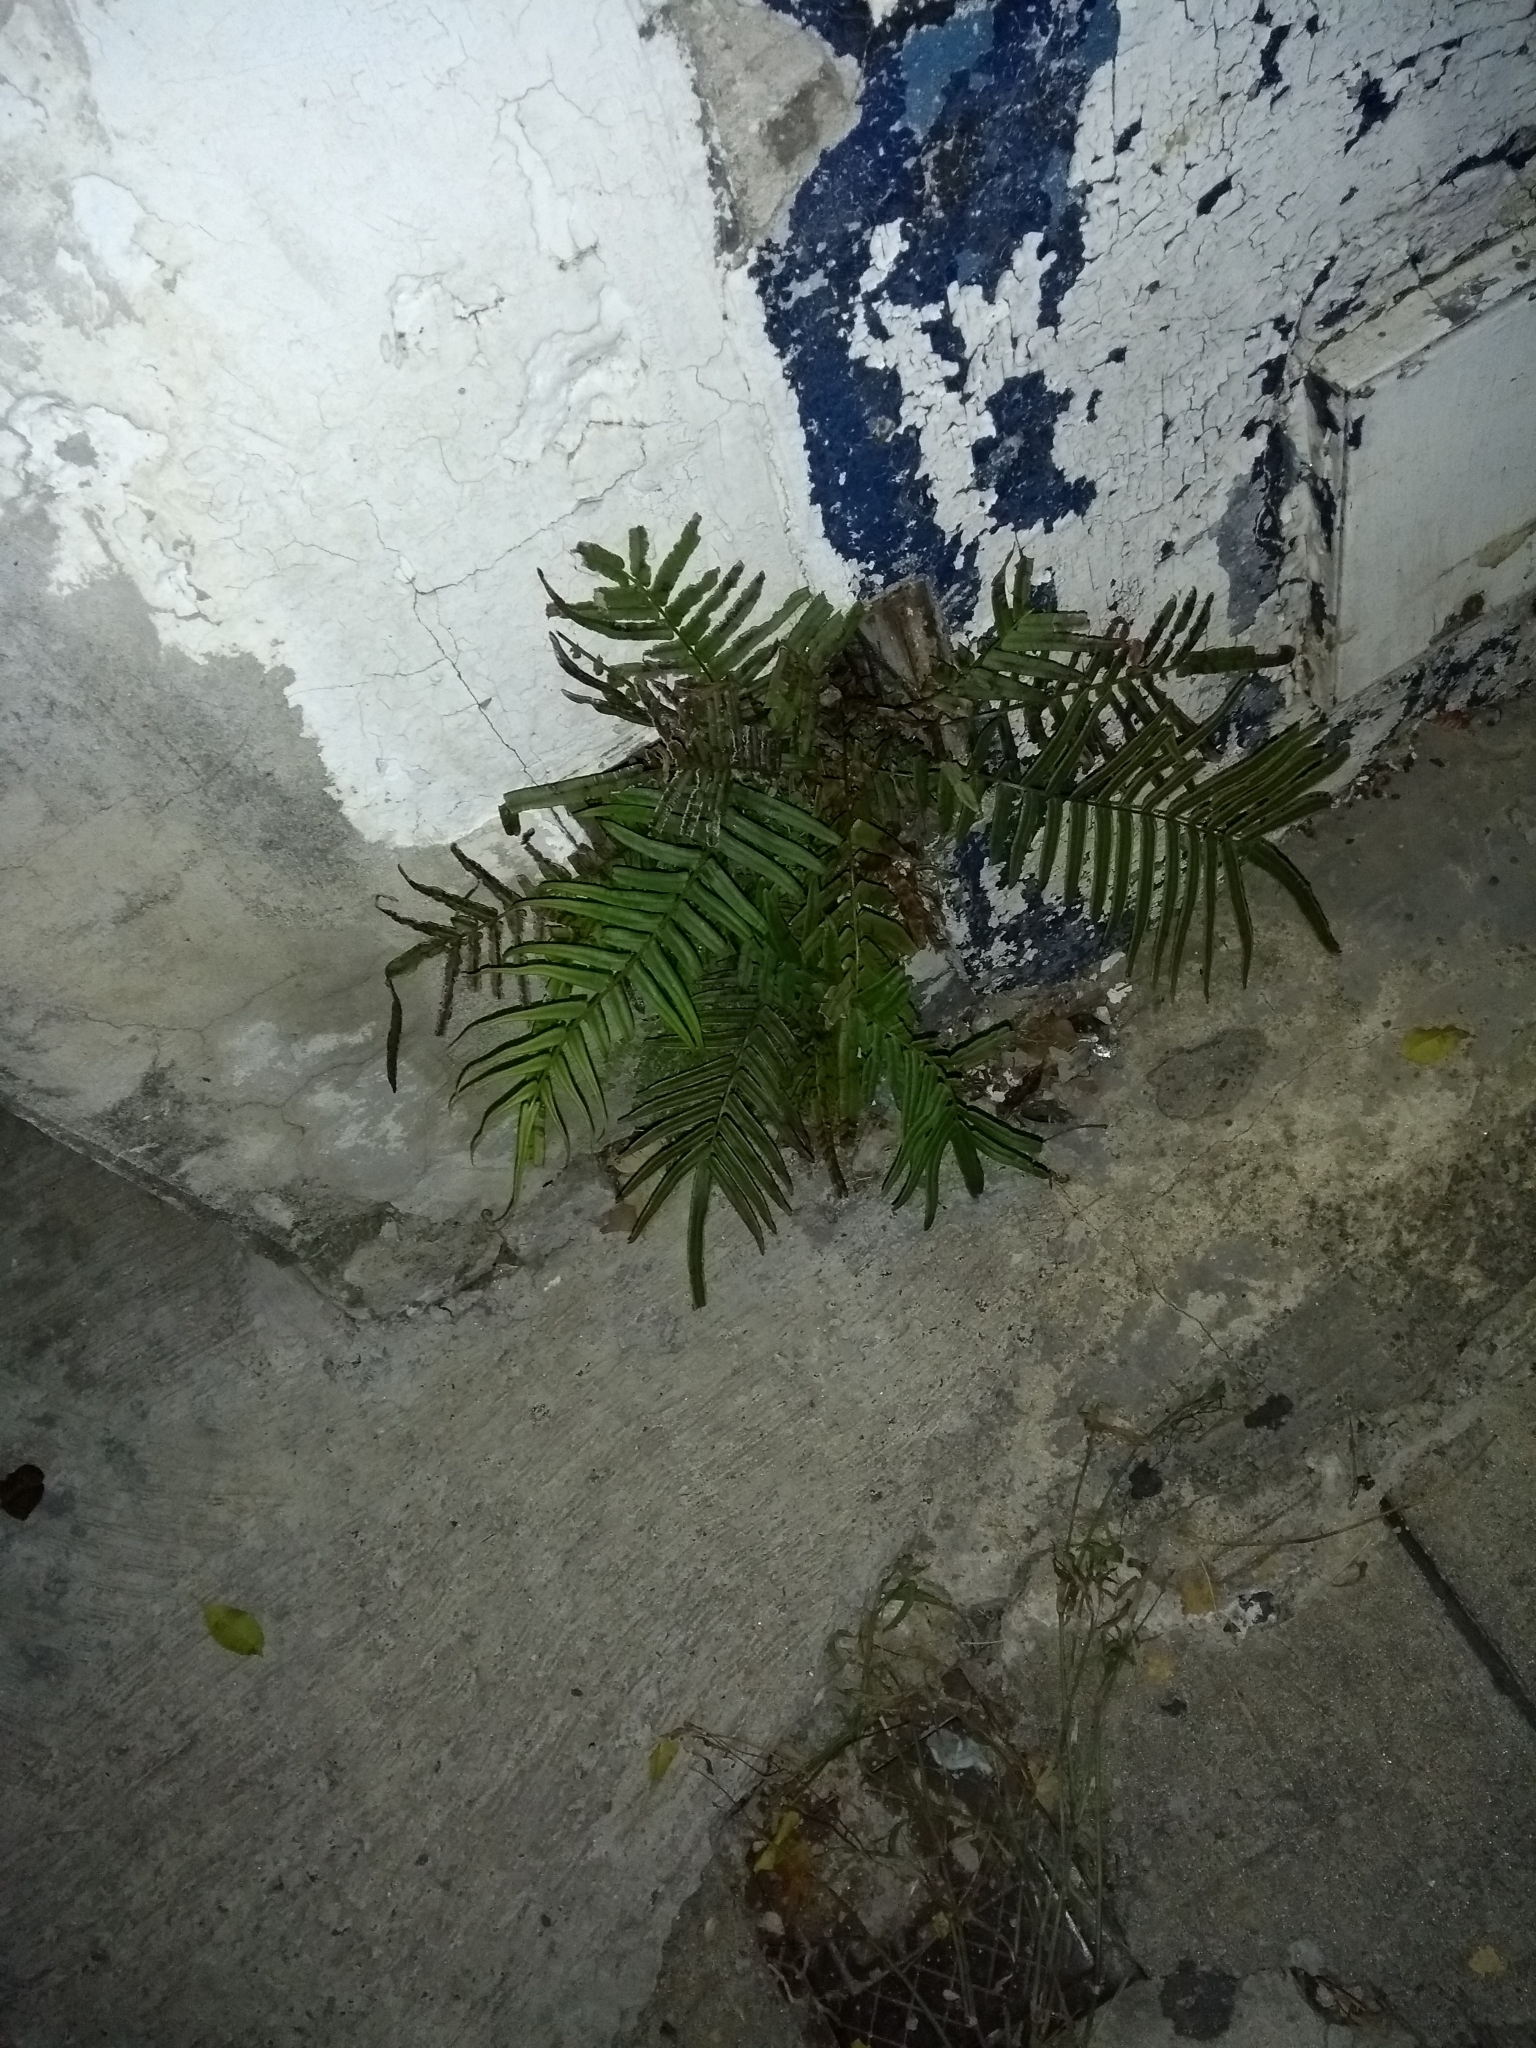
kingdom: Plantae
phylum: Tracheophyta
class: Polypodiopsida
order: Polypodiales
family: Pteridaceae
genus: Pteris
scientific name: Pteris vittata
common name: Ladder brake
